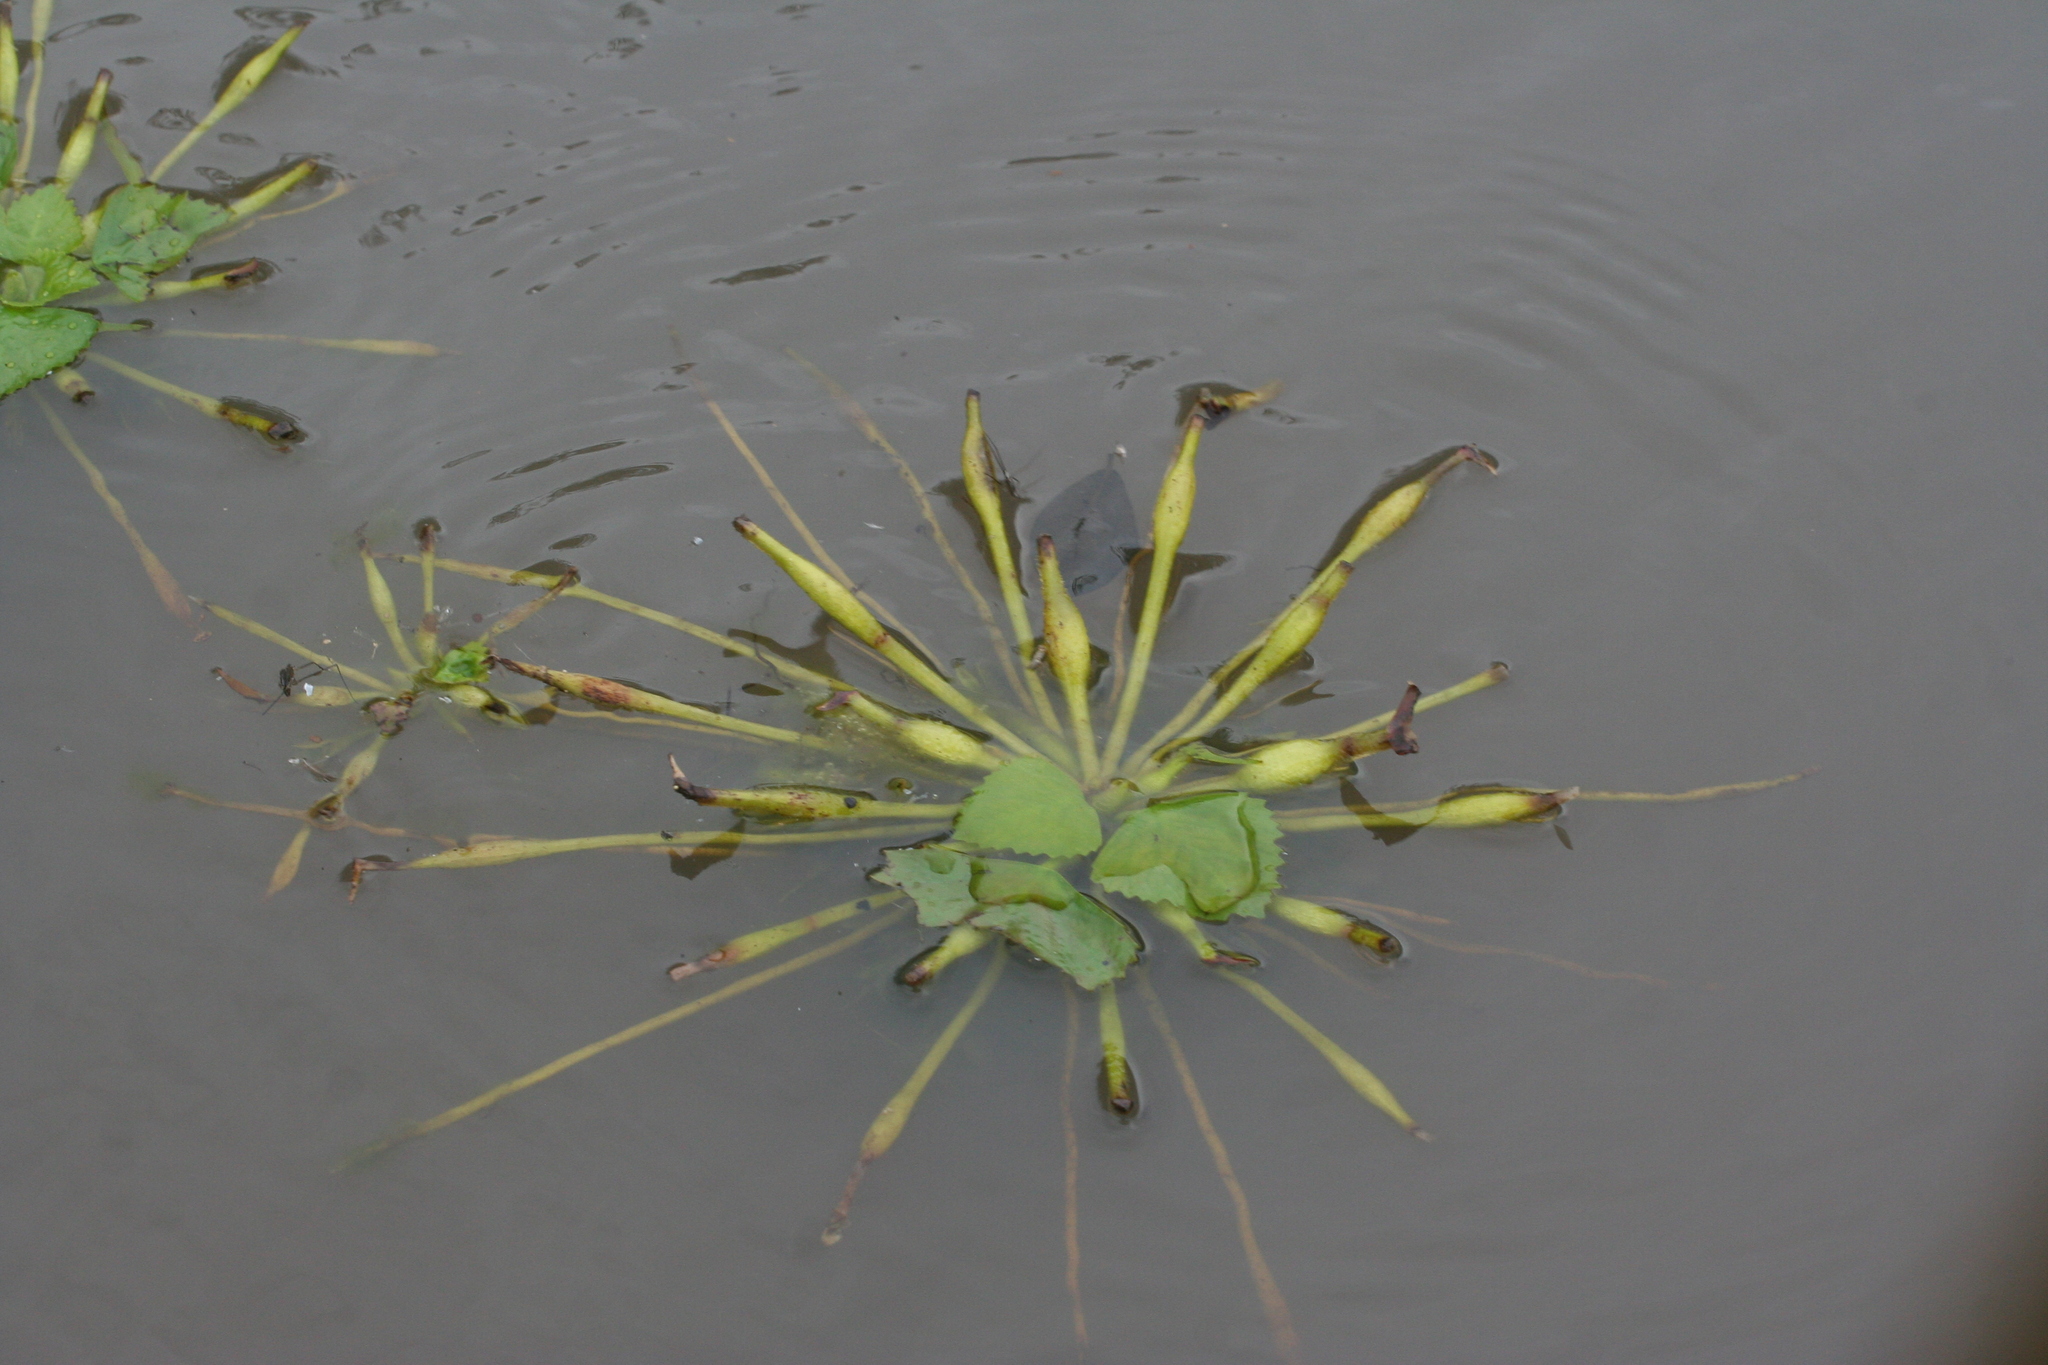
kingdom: Plantae
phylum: Tracheophyta
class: Magnoliopsida
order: Myrtales
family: Lythraceae
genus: Trapa
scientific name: Trapa natans
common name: Water chestnut
